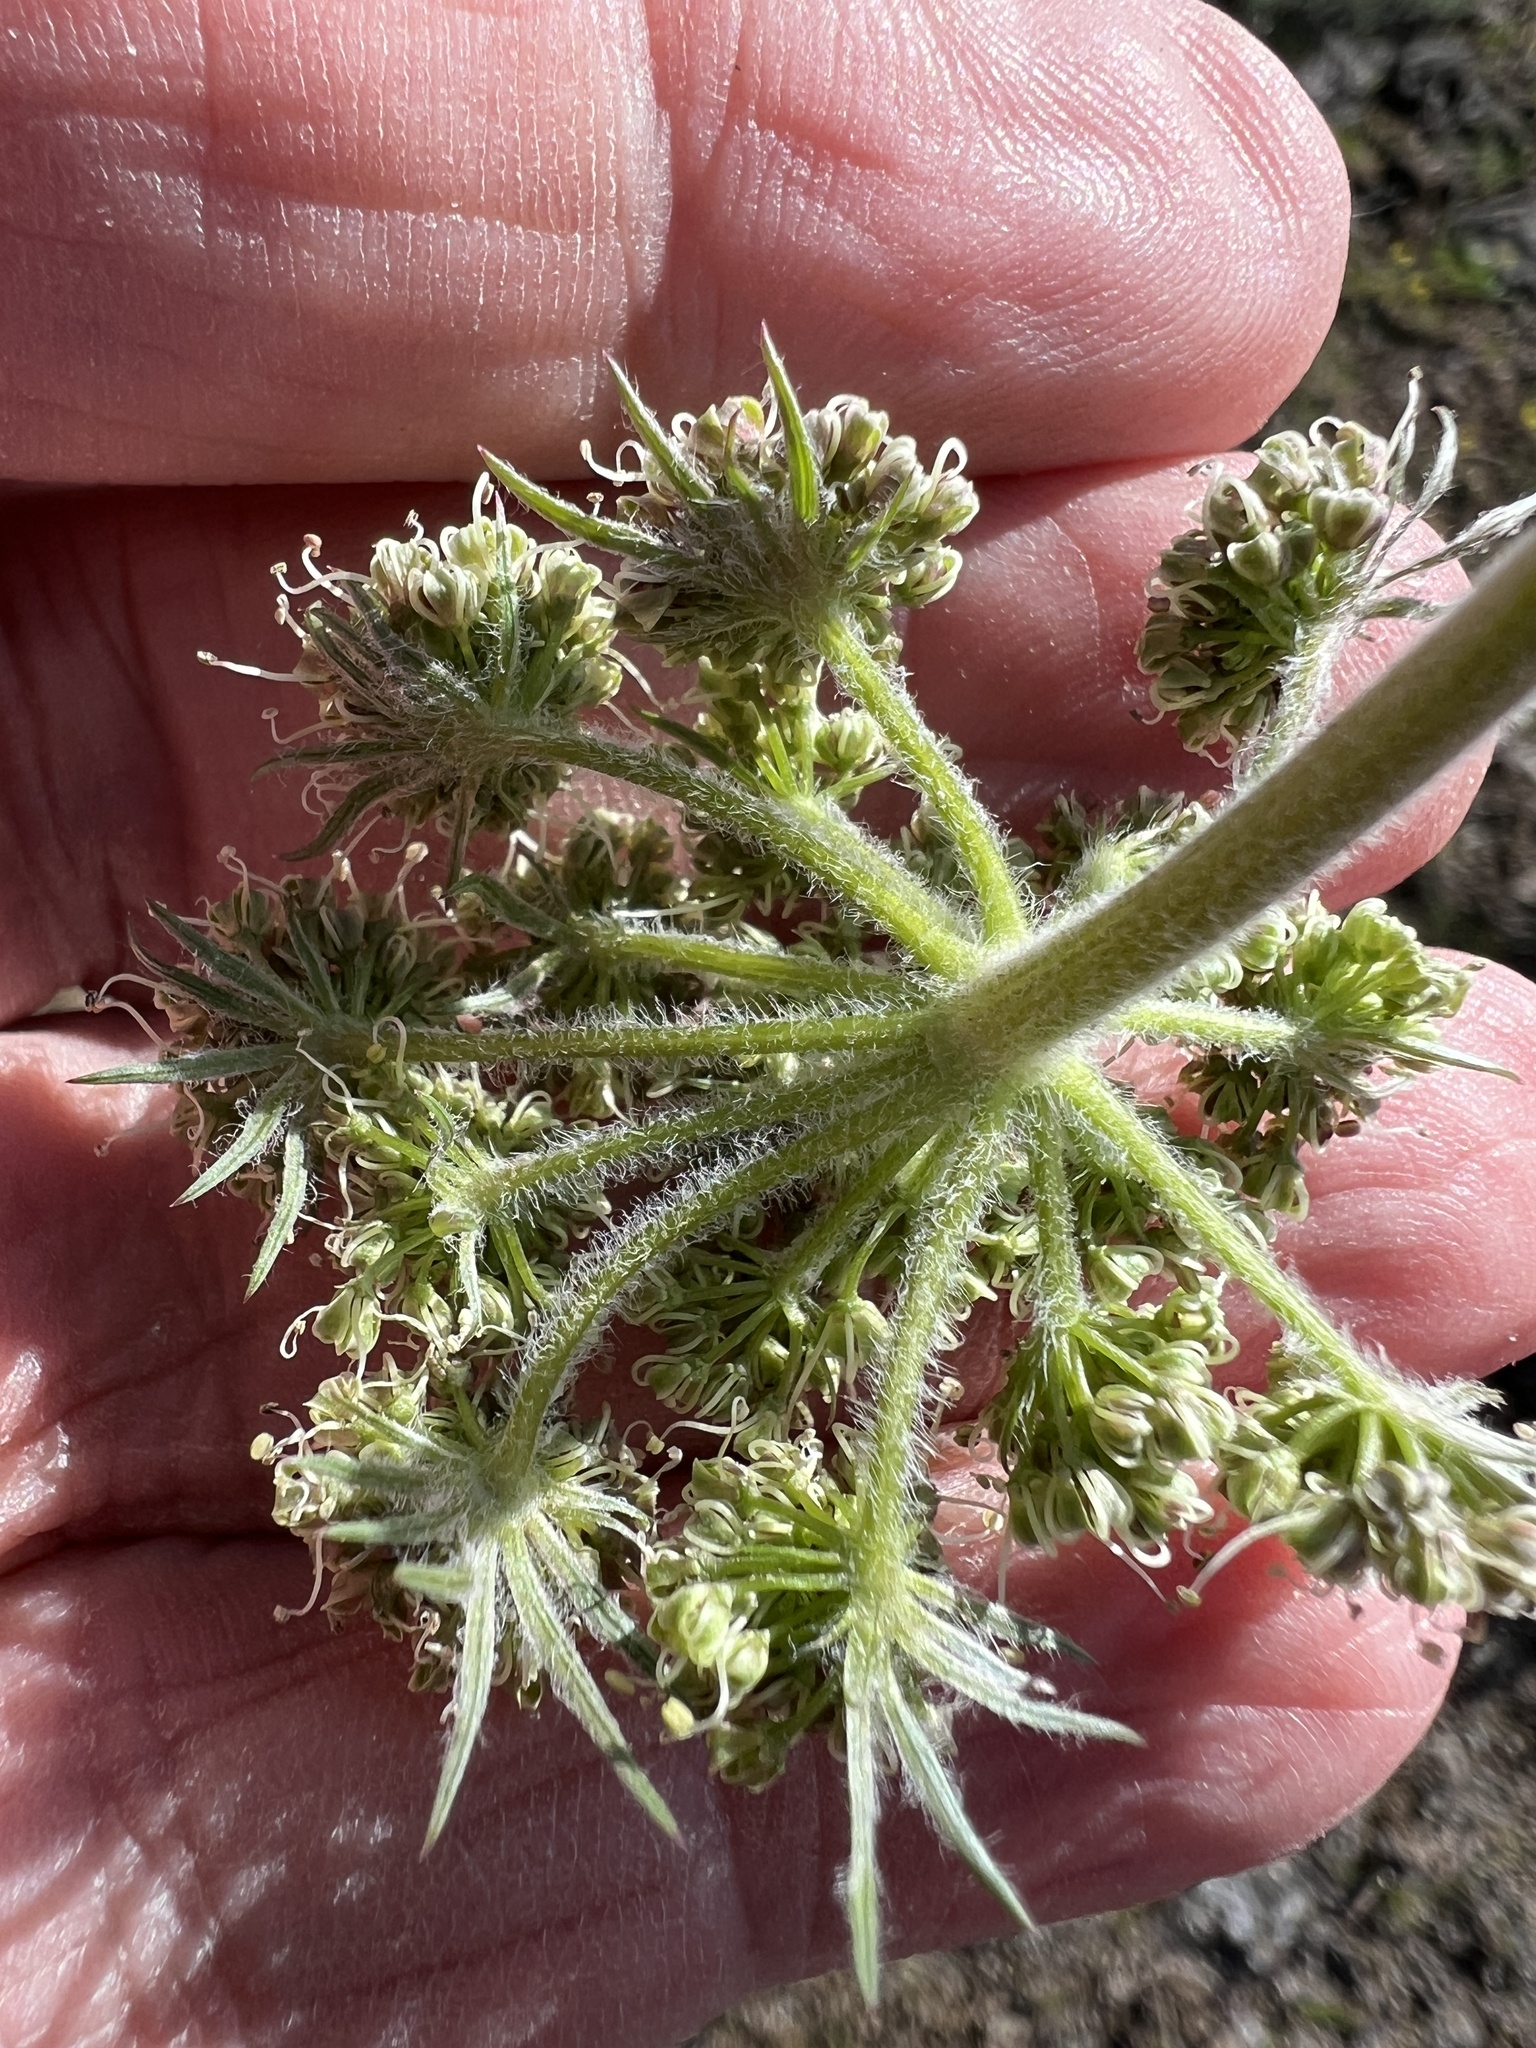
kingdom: Plantae
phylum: Tracheophyta
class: Magnoliopsida
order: Apiales
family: Apiaceae
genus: Lomatium
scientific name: Lomatium macrocarpum
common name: Big-seed biscuitroot
